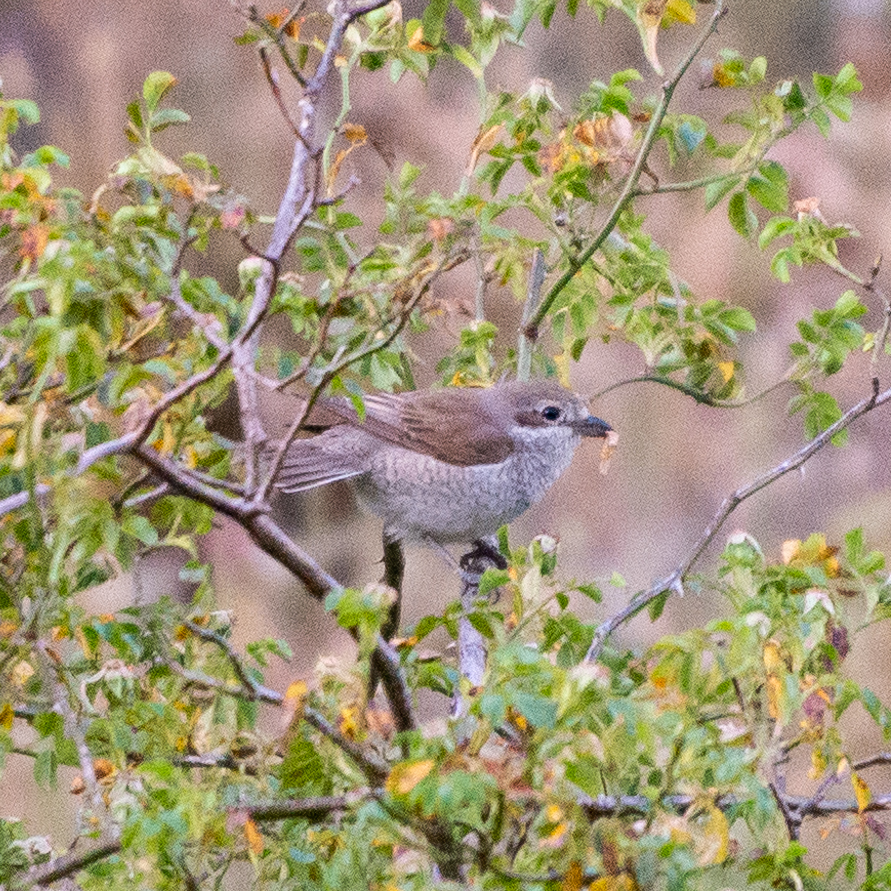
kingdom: Animalia
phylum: Chordata
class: Aves
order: Passeriformes
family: Laniidae
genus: Lanius
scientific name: Lanius collurio
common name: Red-backed shrike
